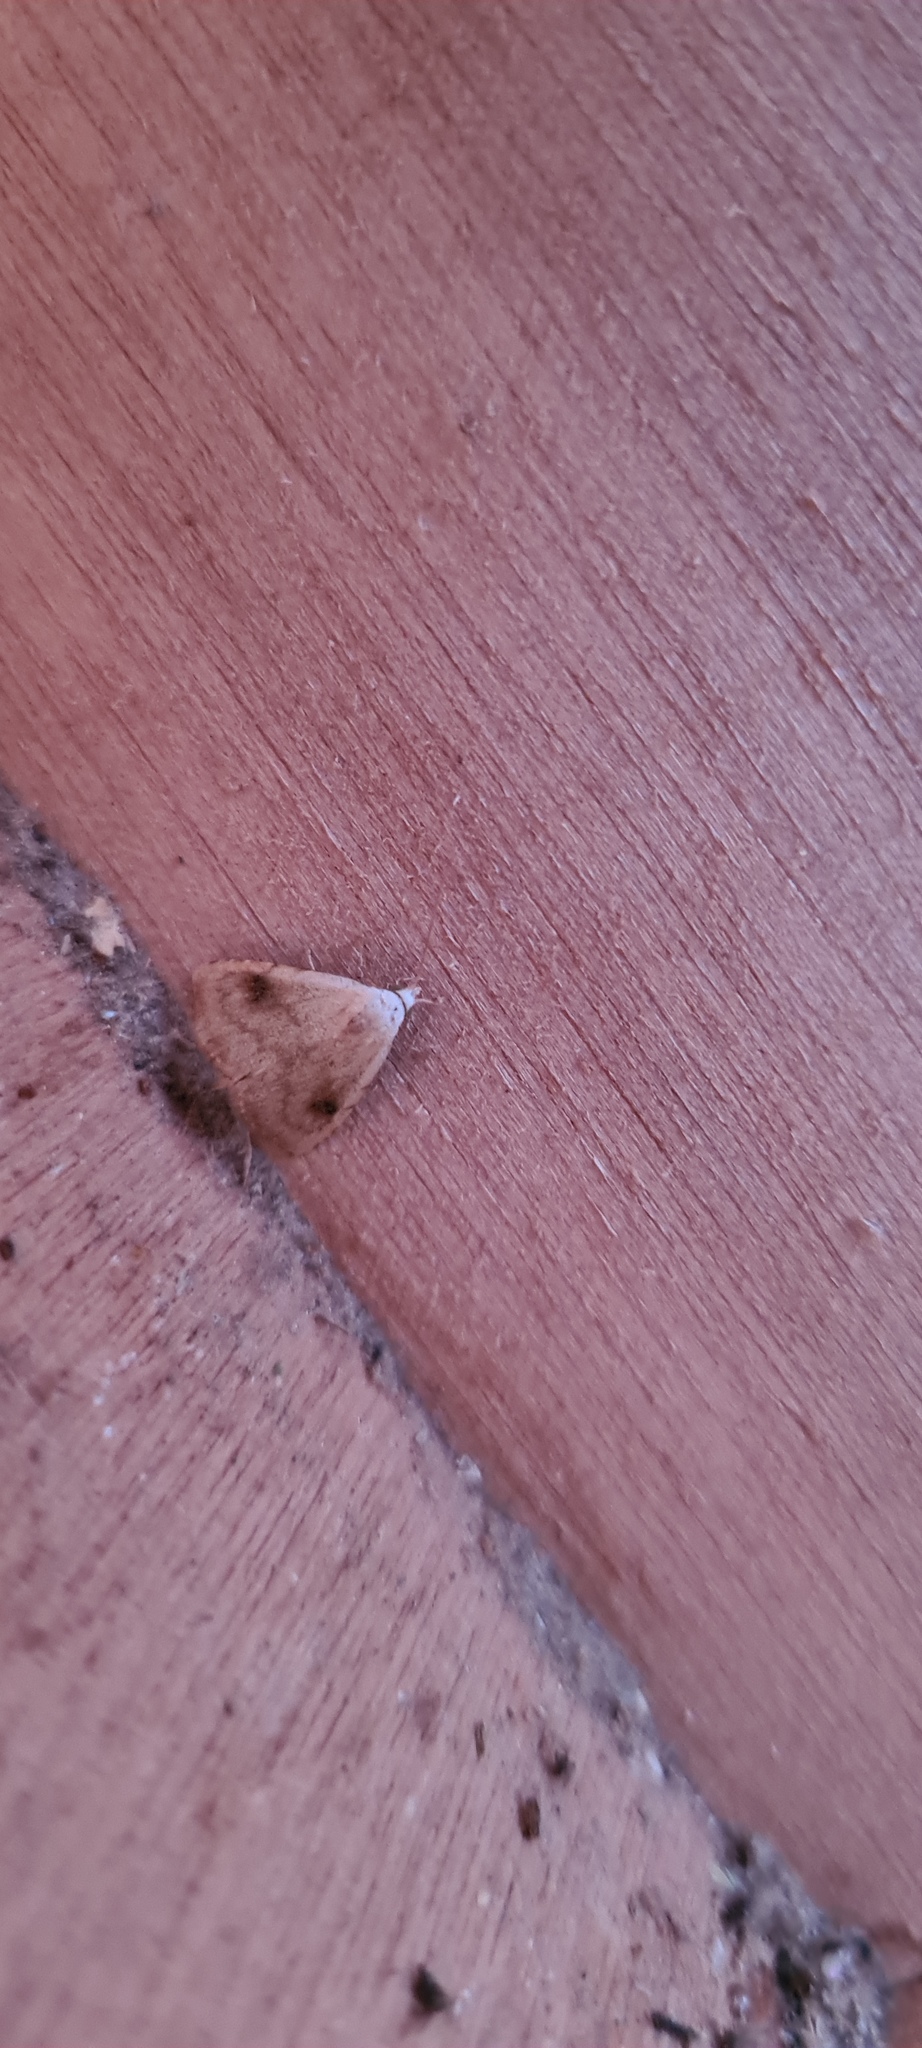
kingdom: Animalia
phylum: Arthropoda
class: Insecta
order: Lepidoptera
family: Erebidae
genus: Rivula
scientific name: Rivula sericealis
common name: Straw dot
